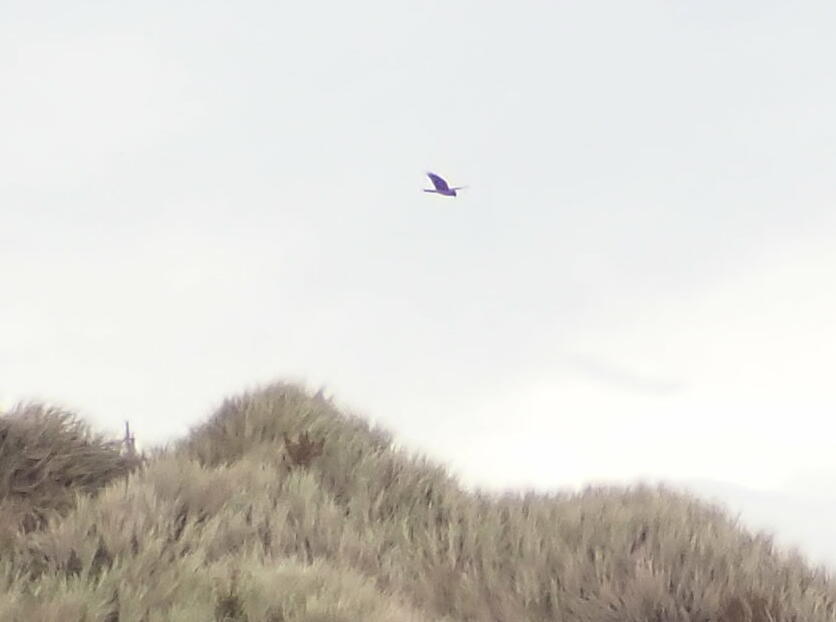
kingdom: Animalia
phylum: Chordata
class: Aves
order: Accipitriformes
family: Accipitridae
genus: Circus
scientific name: Circus approximans
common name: Swamp harrier
